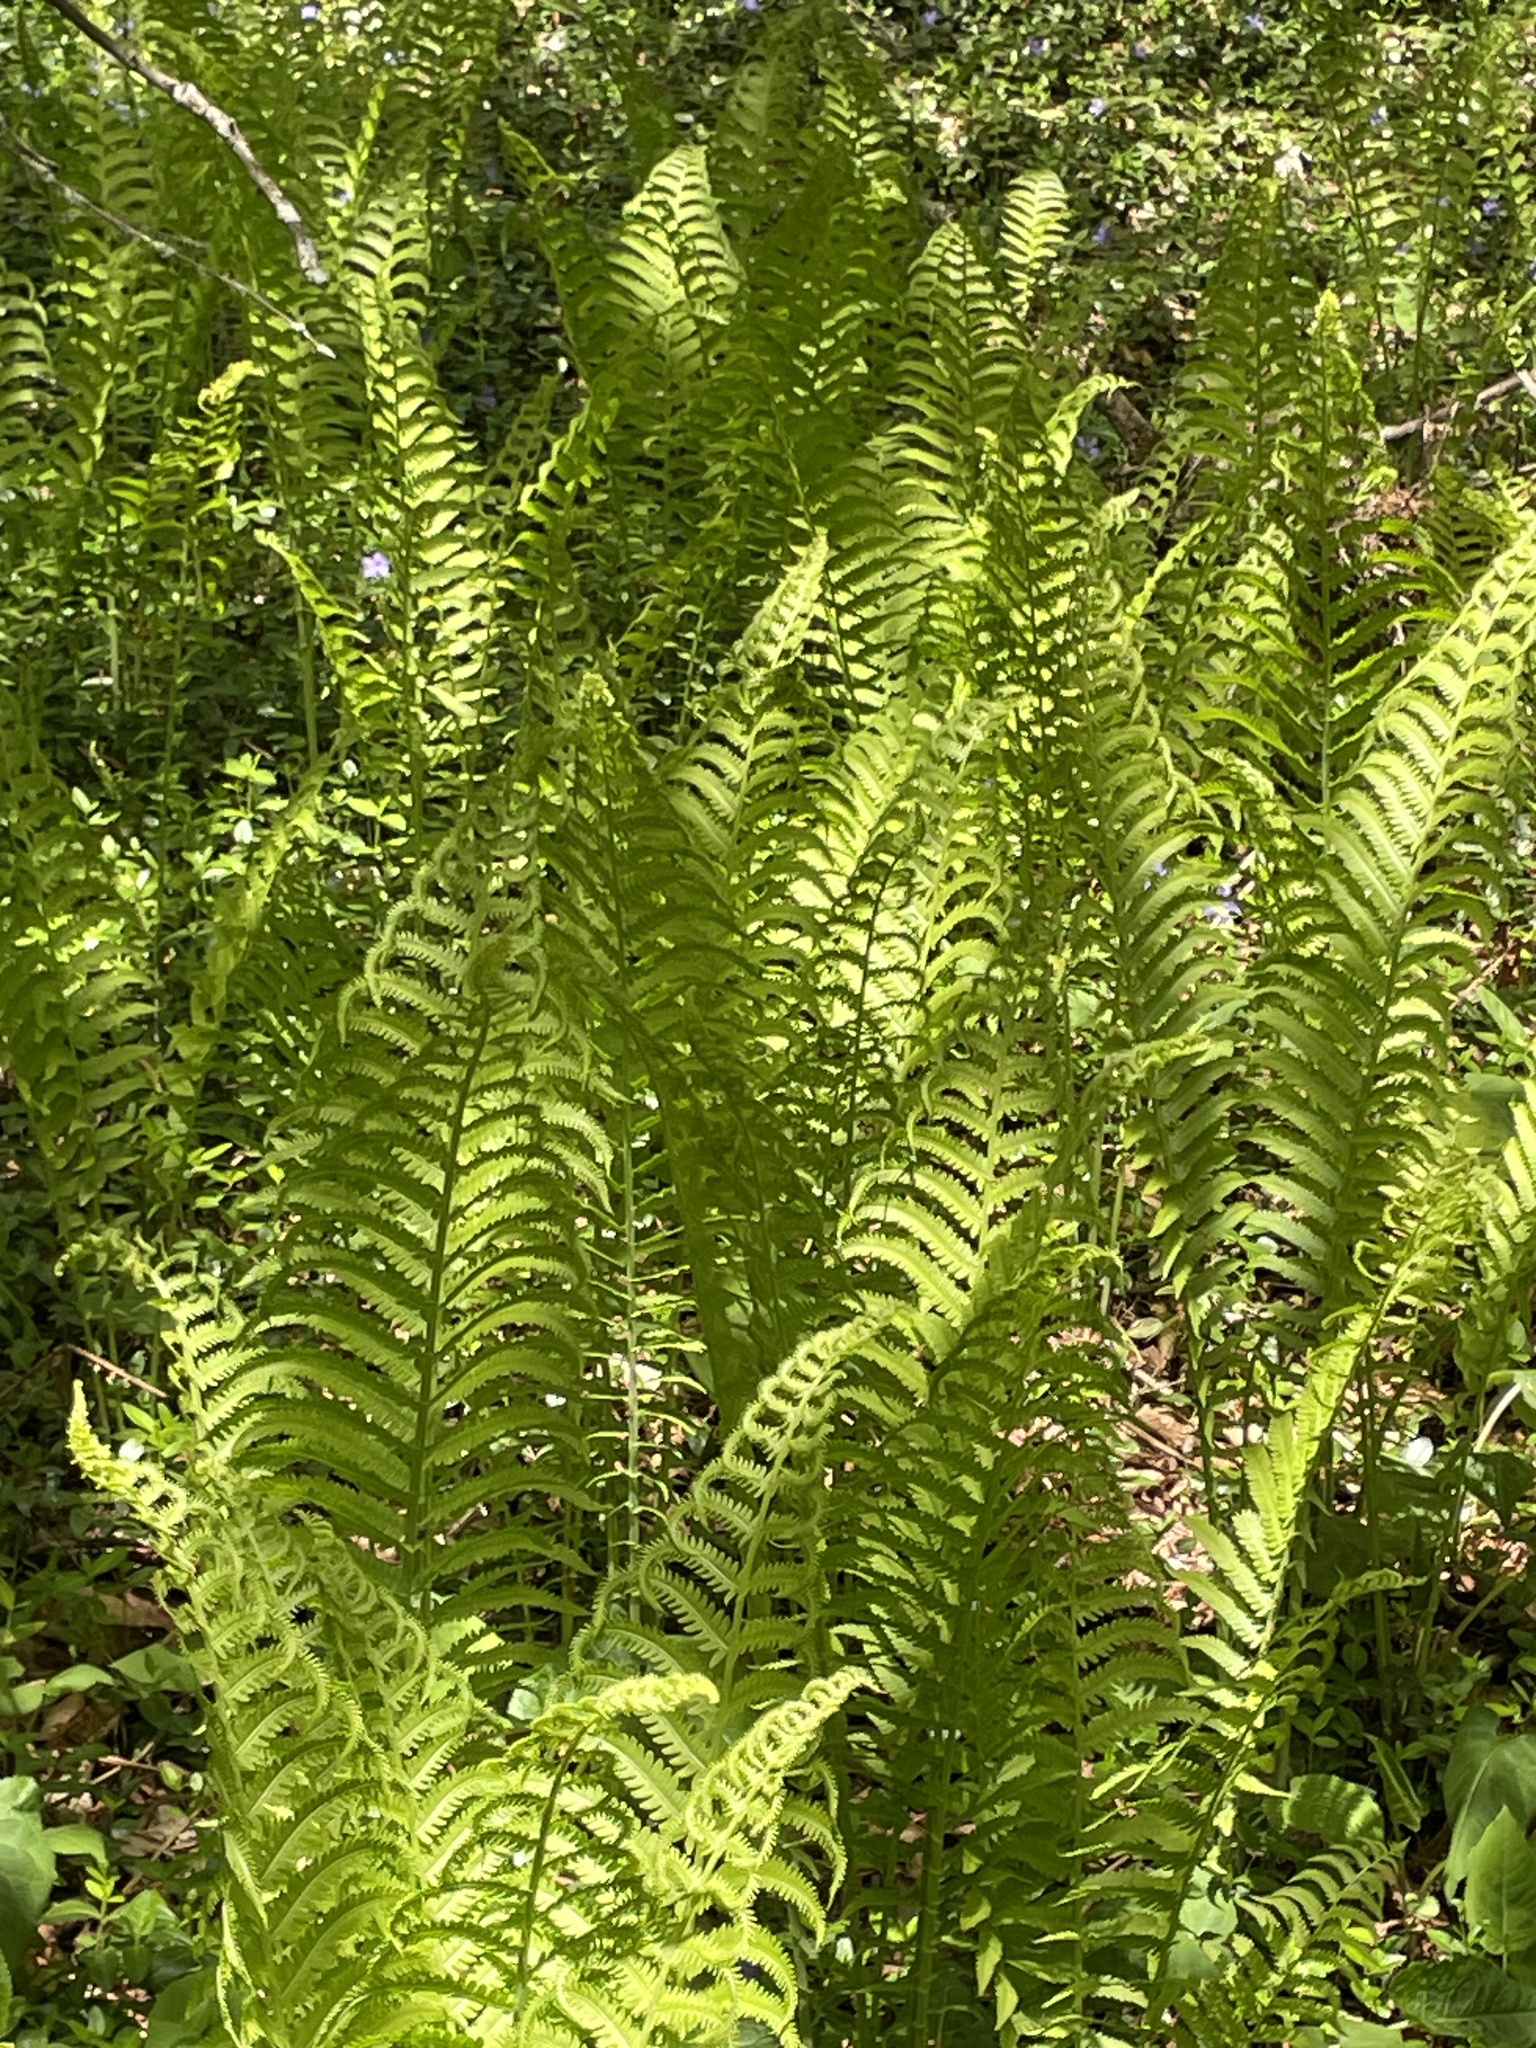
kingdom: Plantae
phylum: Tracheophyta
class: Polypodiopsida
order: Polypodiales
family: Onocleaceae
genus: Matteuccia
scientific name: Matteuccia struthiopteris
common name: Ostrich fern
